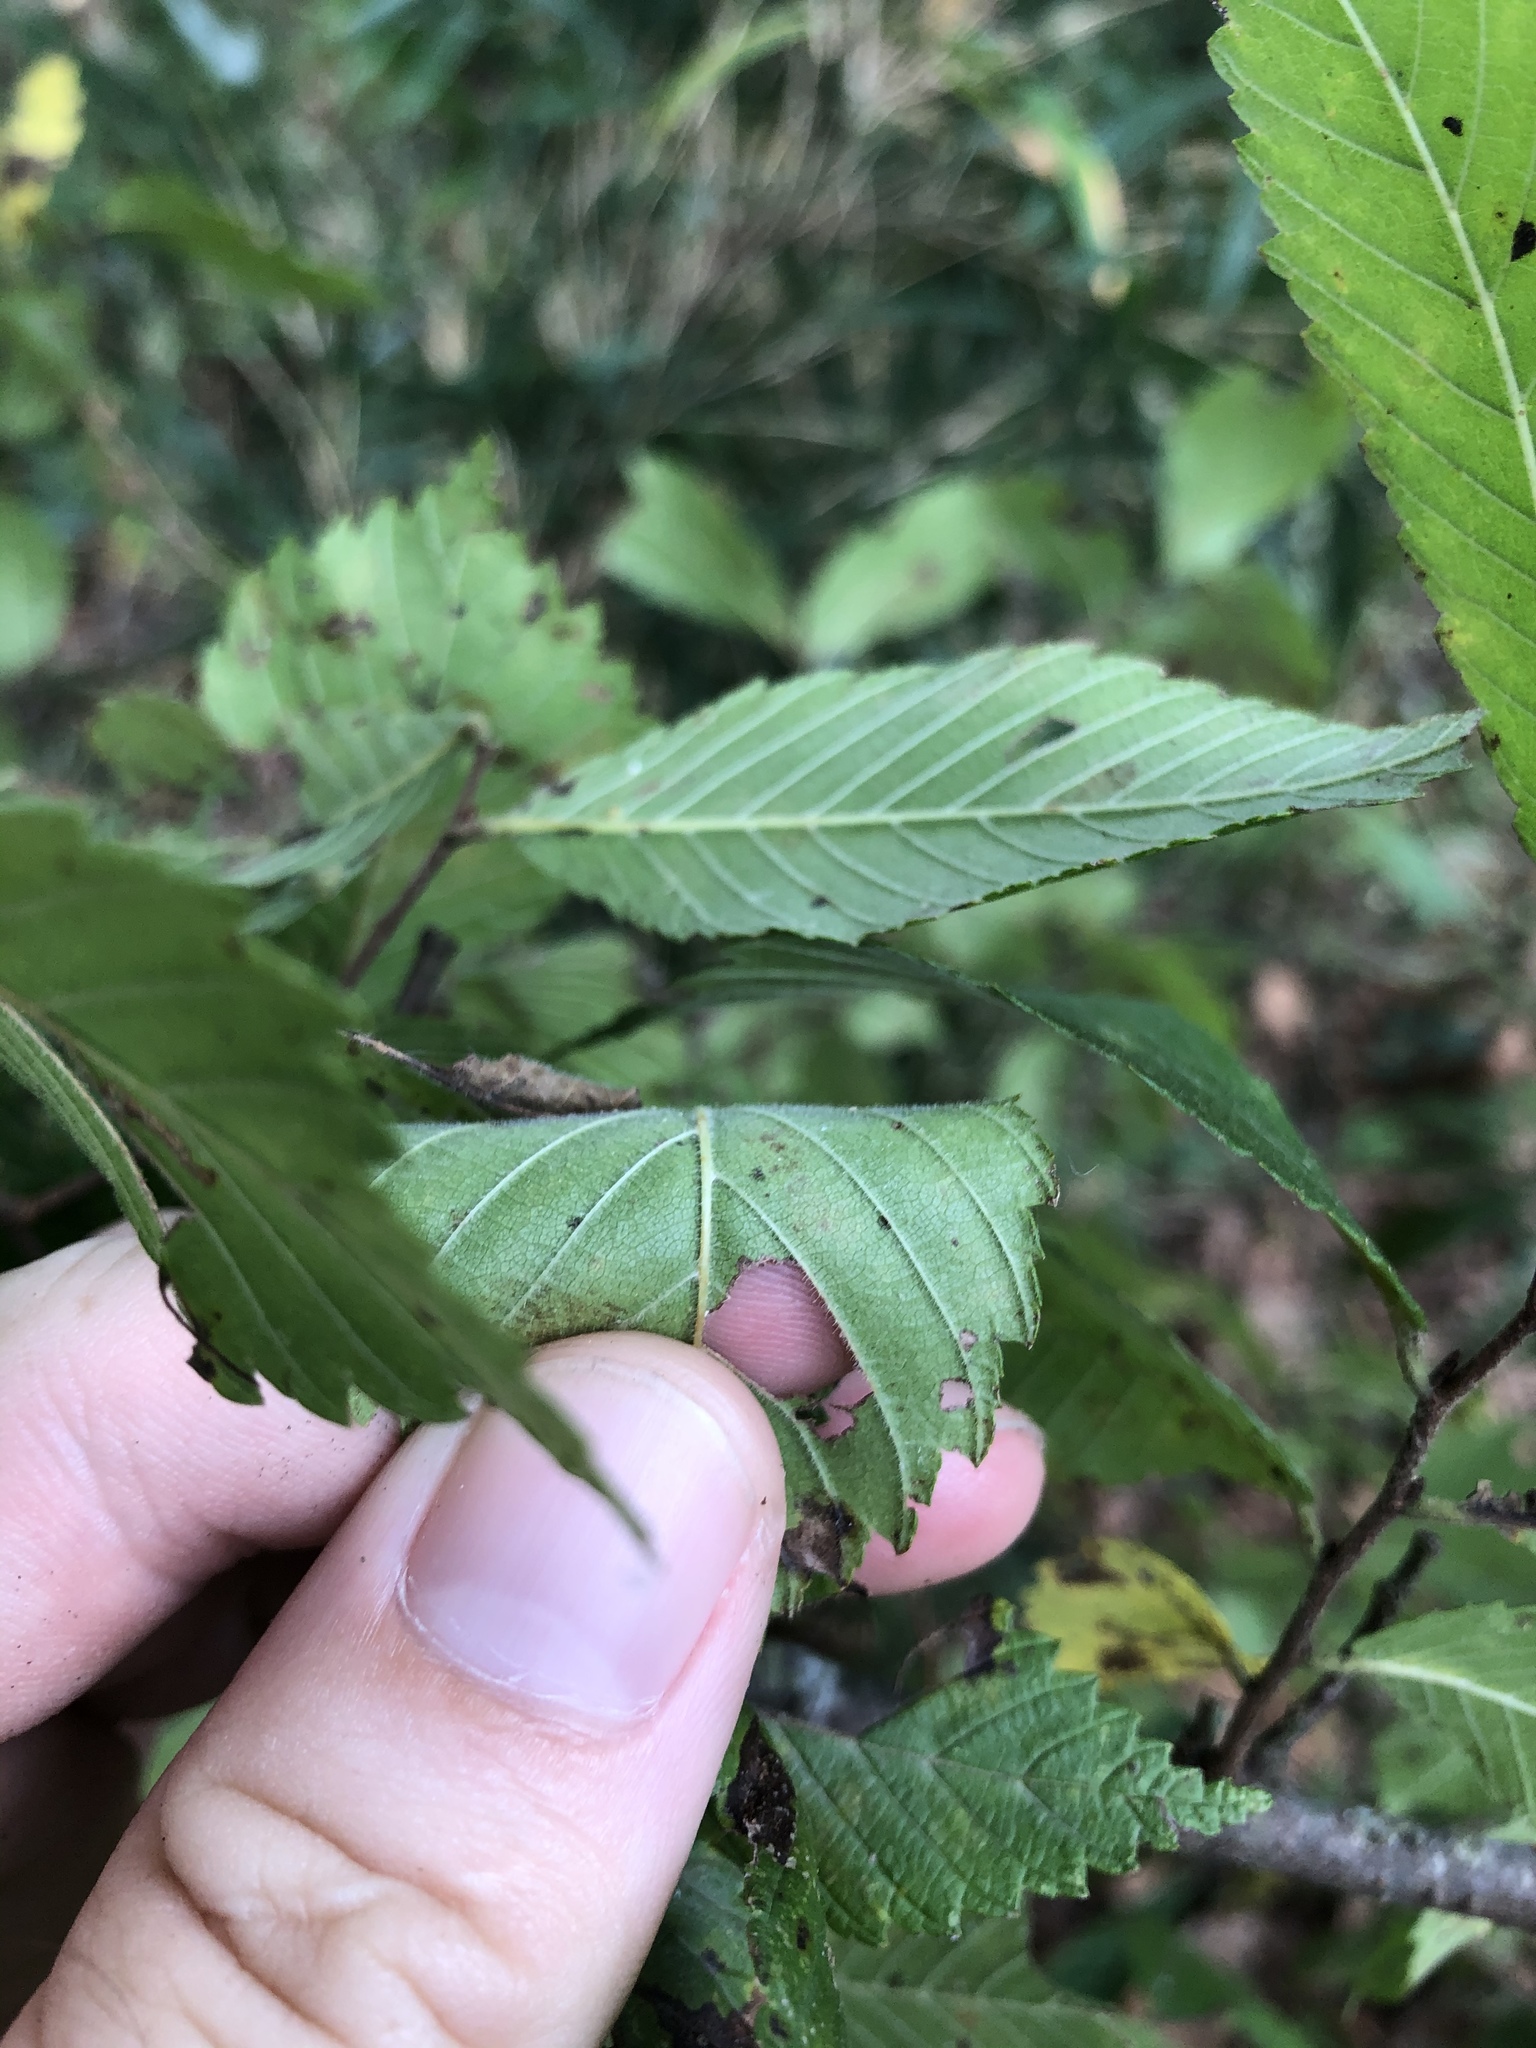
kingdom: Plantae
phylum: Tracheophyta
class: Magnoliopsida
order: Rosales
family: Ulmaceae
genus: Ulmus
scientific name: Ulmus americana
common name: American elm
